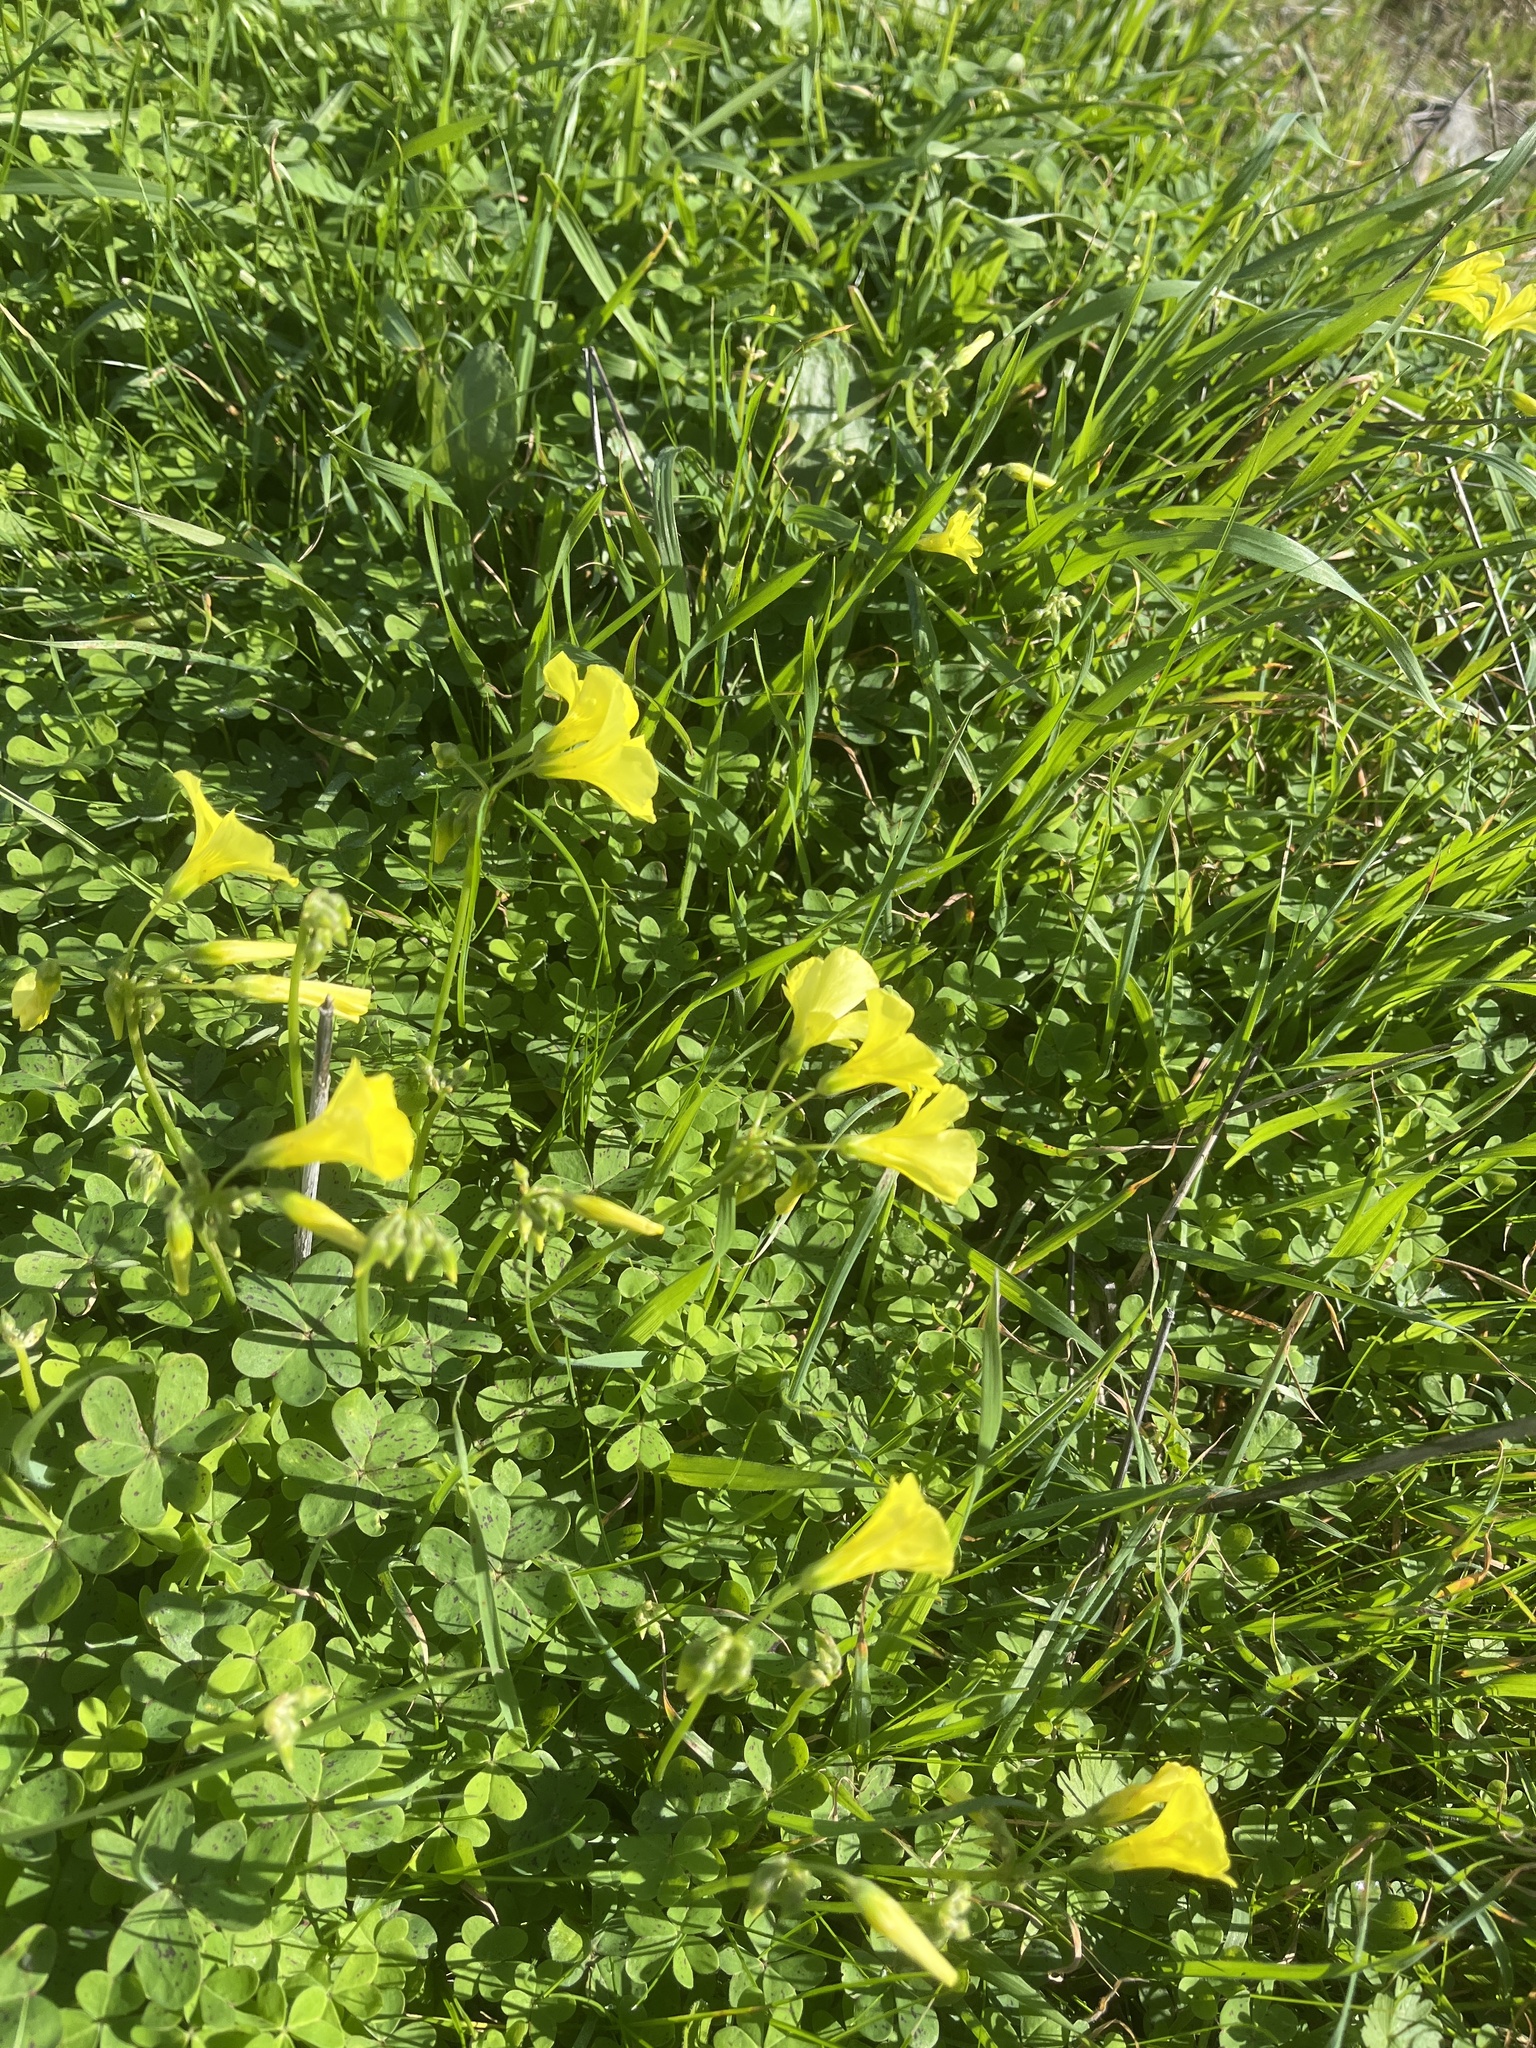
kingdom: Plantae
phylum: Tracheophyta
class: Magnoliopsida
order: Oxalidales
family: Oxalidaceae
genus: Oxalis
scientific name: Oxalis pes-caprae
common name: Bermuda-buttercup
